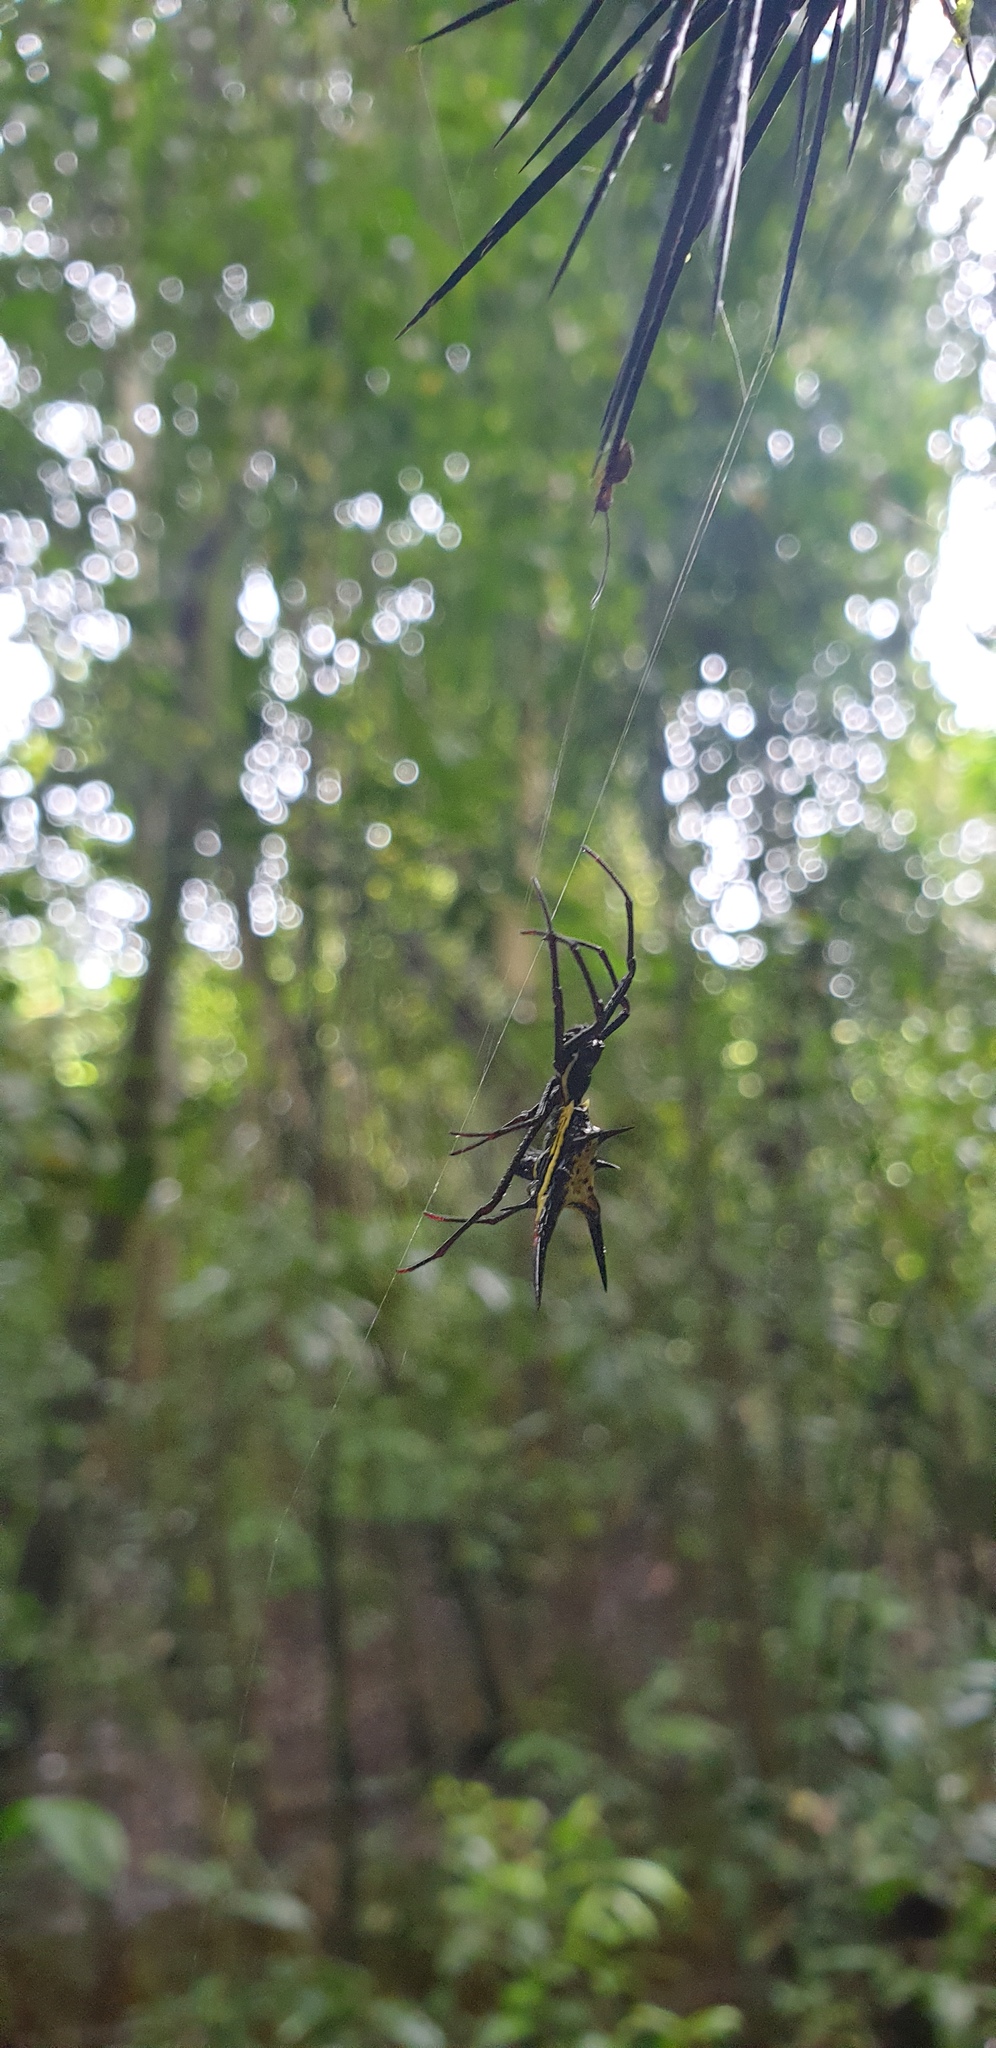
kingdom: Animalia
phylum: Arthropoda
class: Arachnida
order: Araneae
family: Araneidae
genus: Micrathena
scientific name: Micrathena schreibersi
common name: Orb weavers
